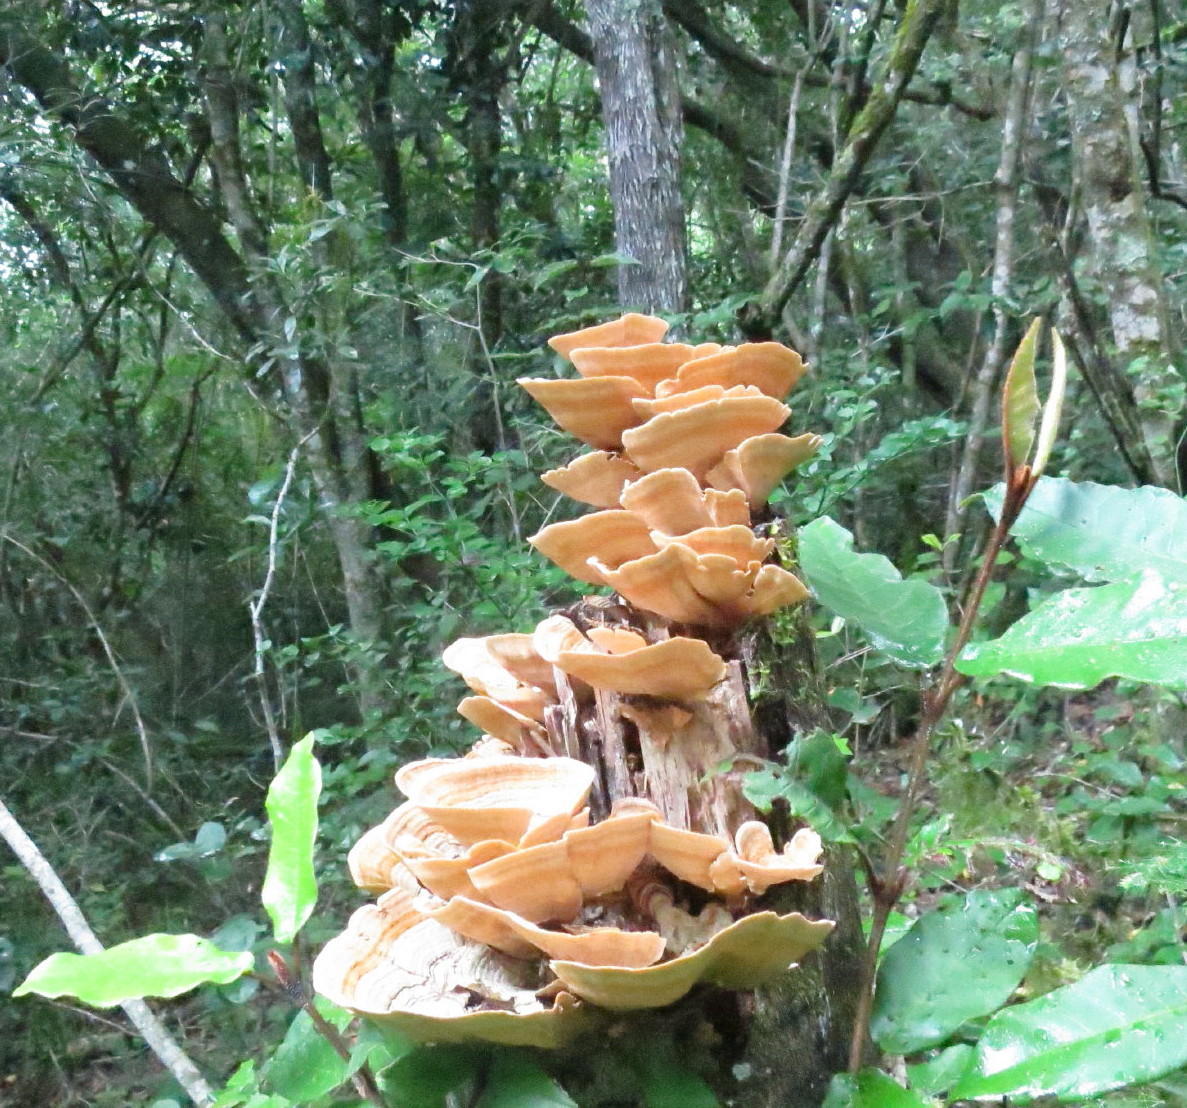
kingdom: Fungi
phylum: Basidiomycota
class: Agaricomycetes
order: Russulales
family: Stereaceae
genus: Stereum
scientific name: Stereum ostrea
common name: False turkeytail
